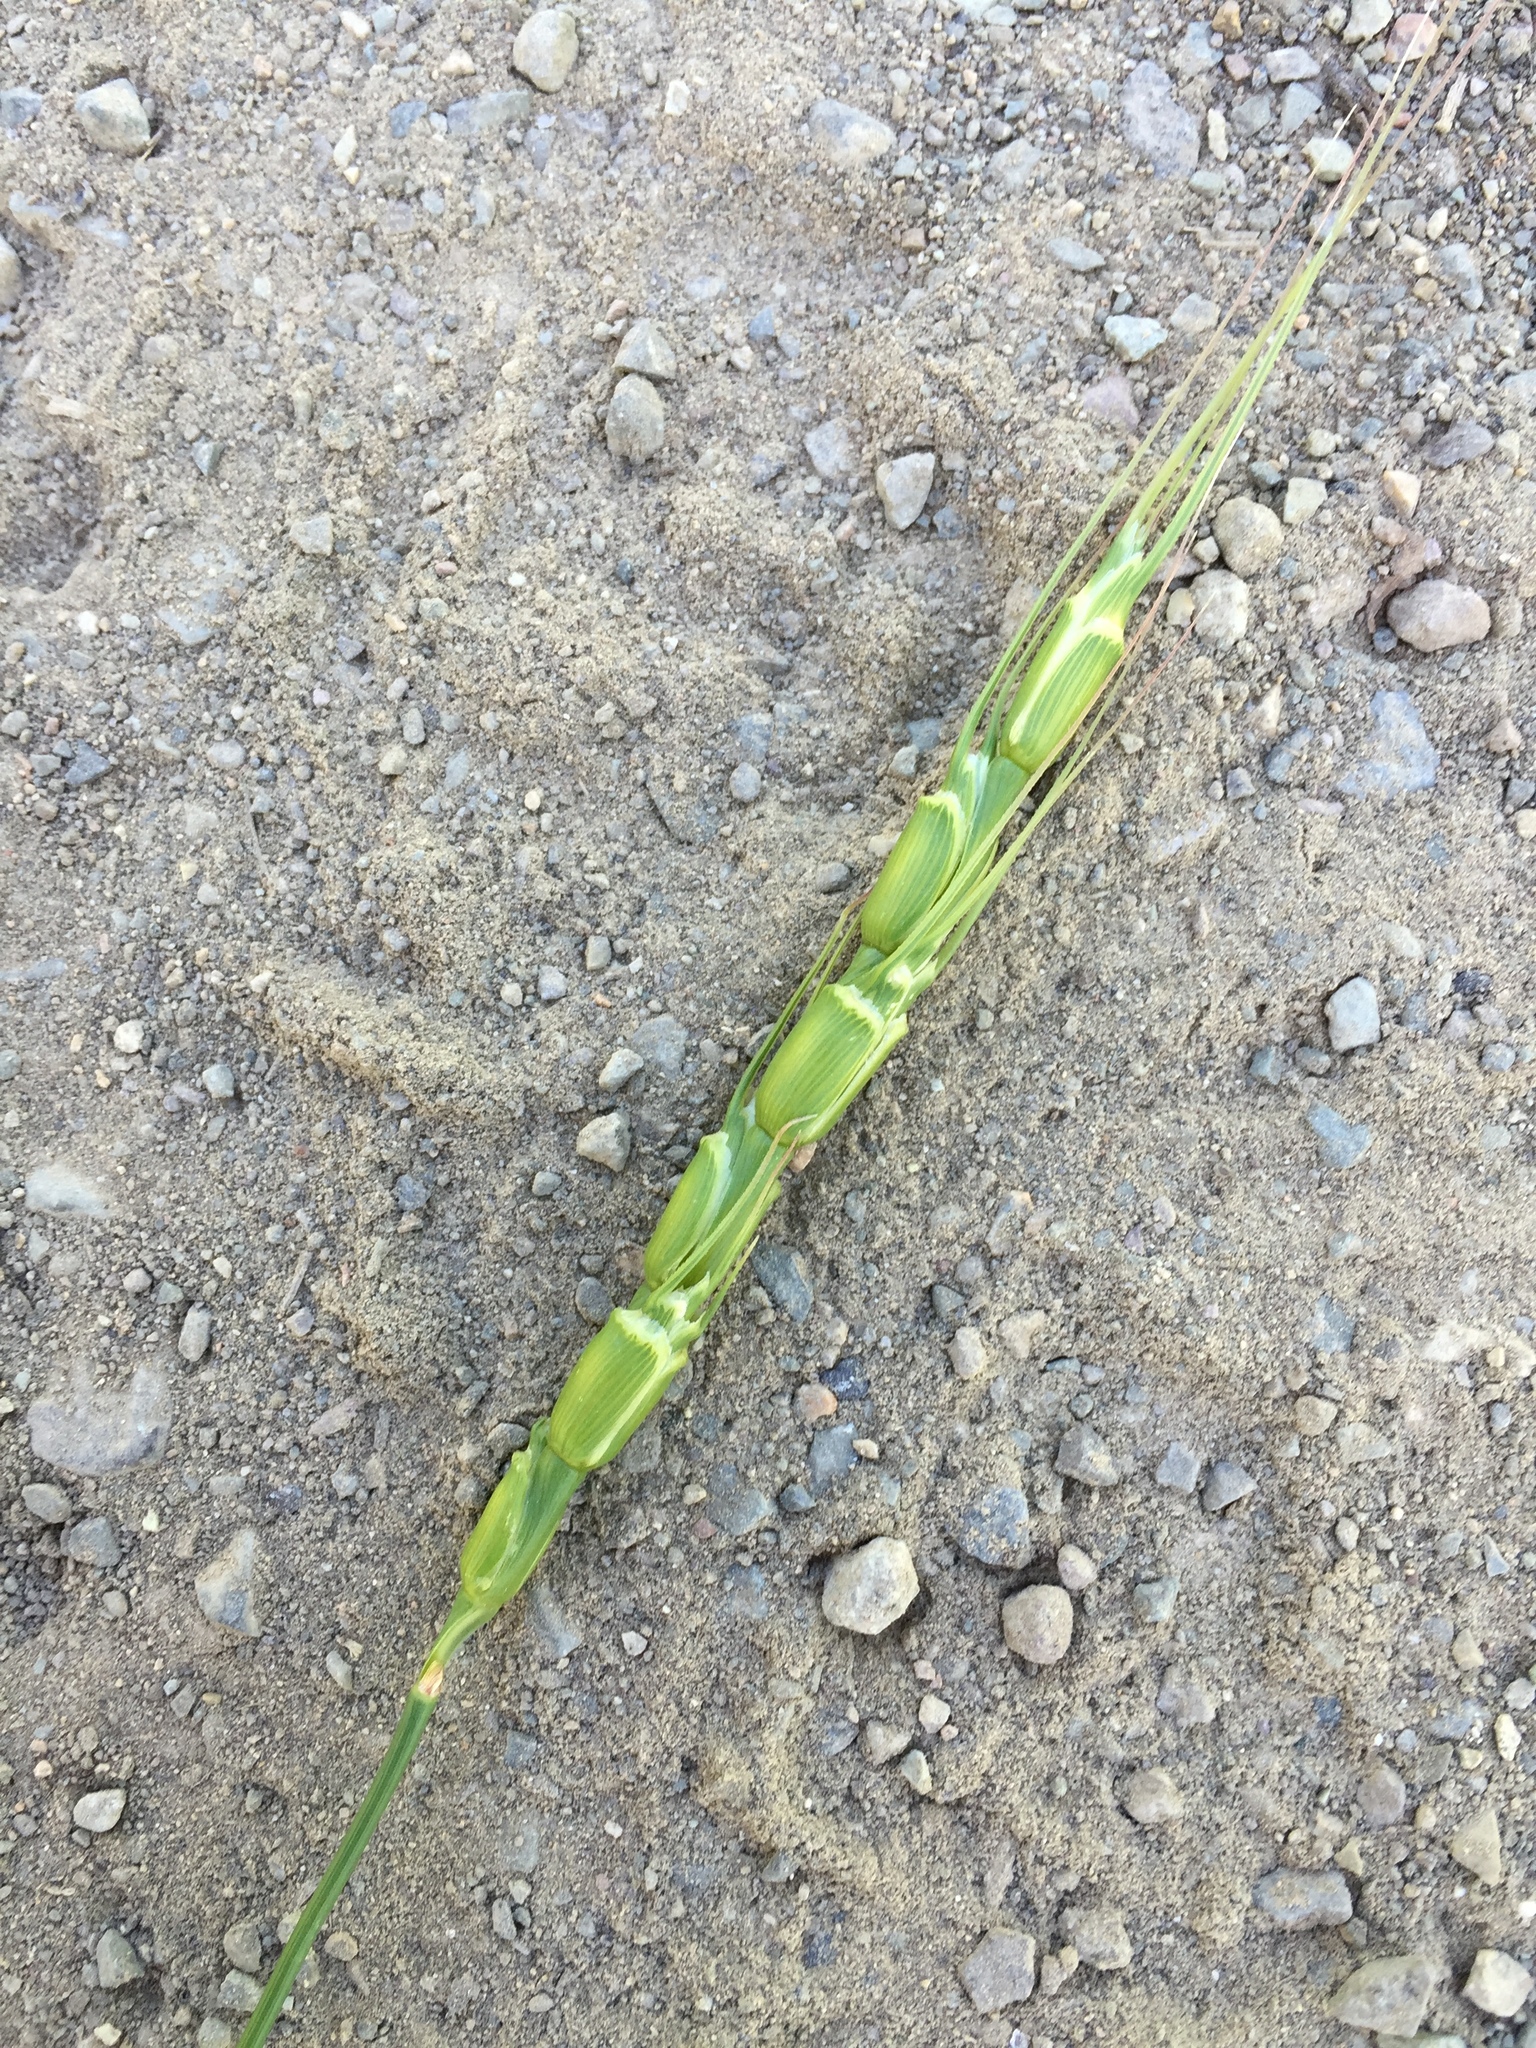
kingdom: Plantae
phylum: Tracheophyta
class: Liliopsida
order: Poales
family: Poaceae
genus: Aegilops
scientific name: Aegilops cylindrica
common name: Jointed goatgrass
